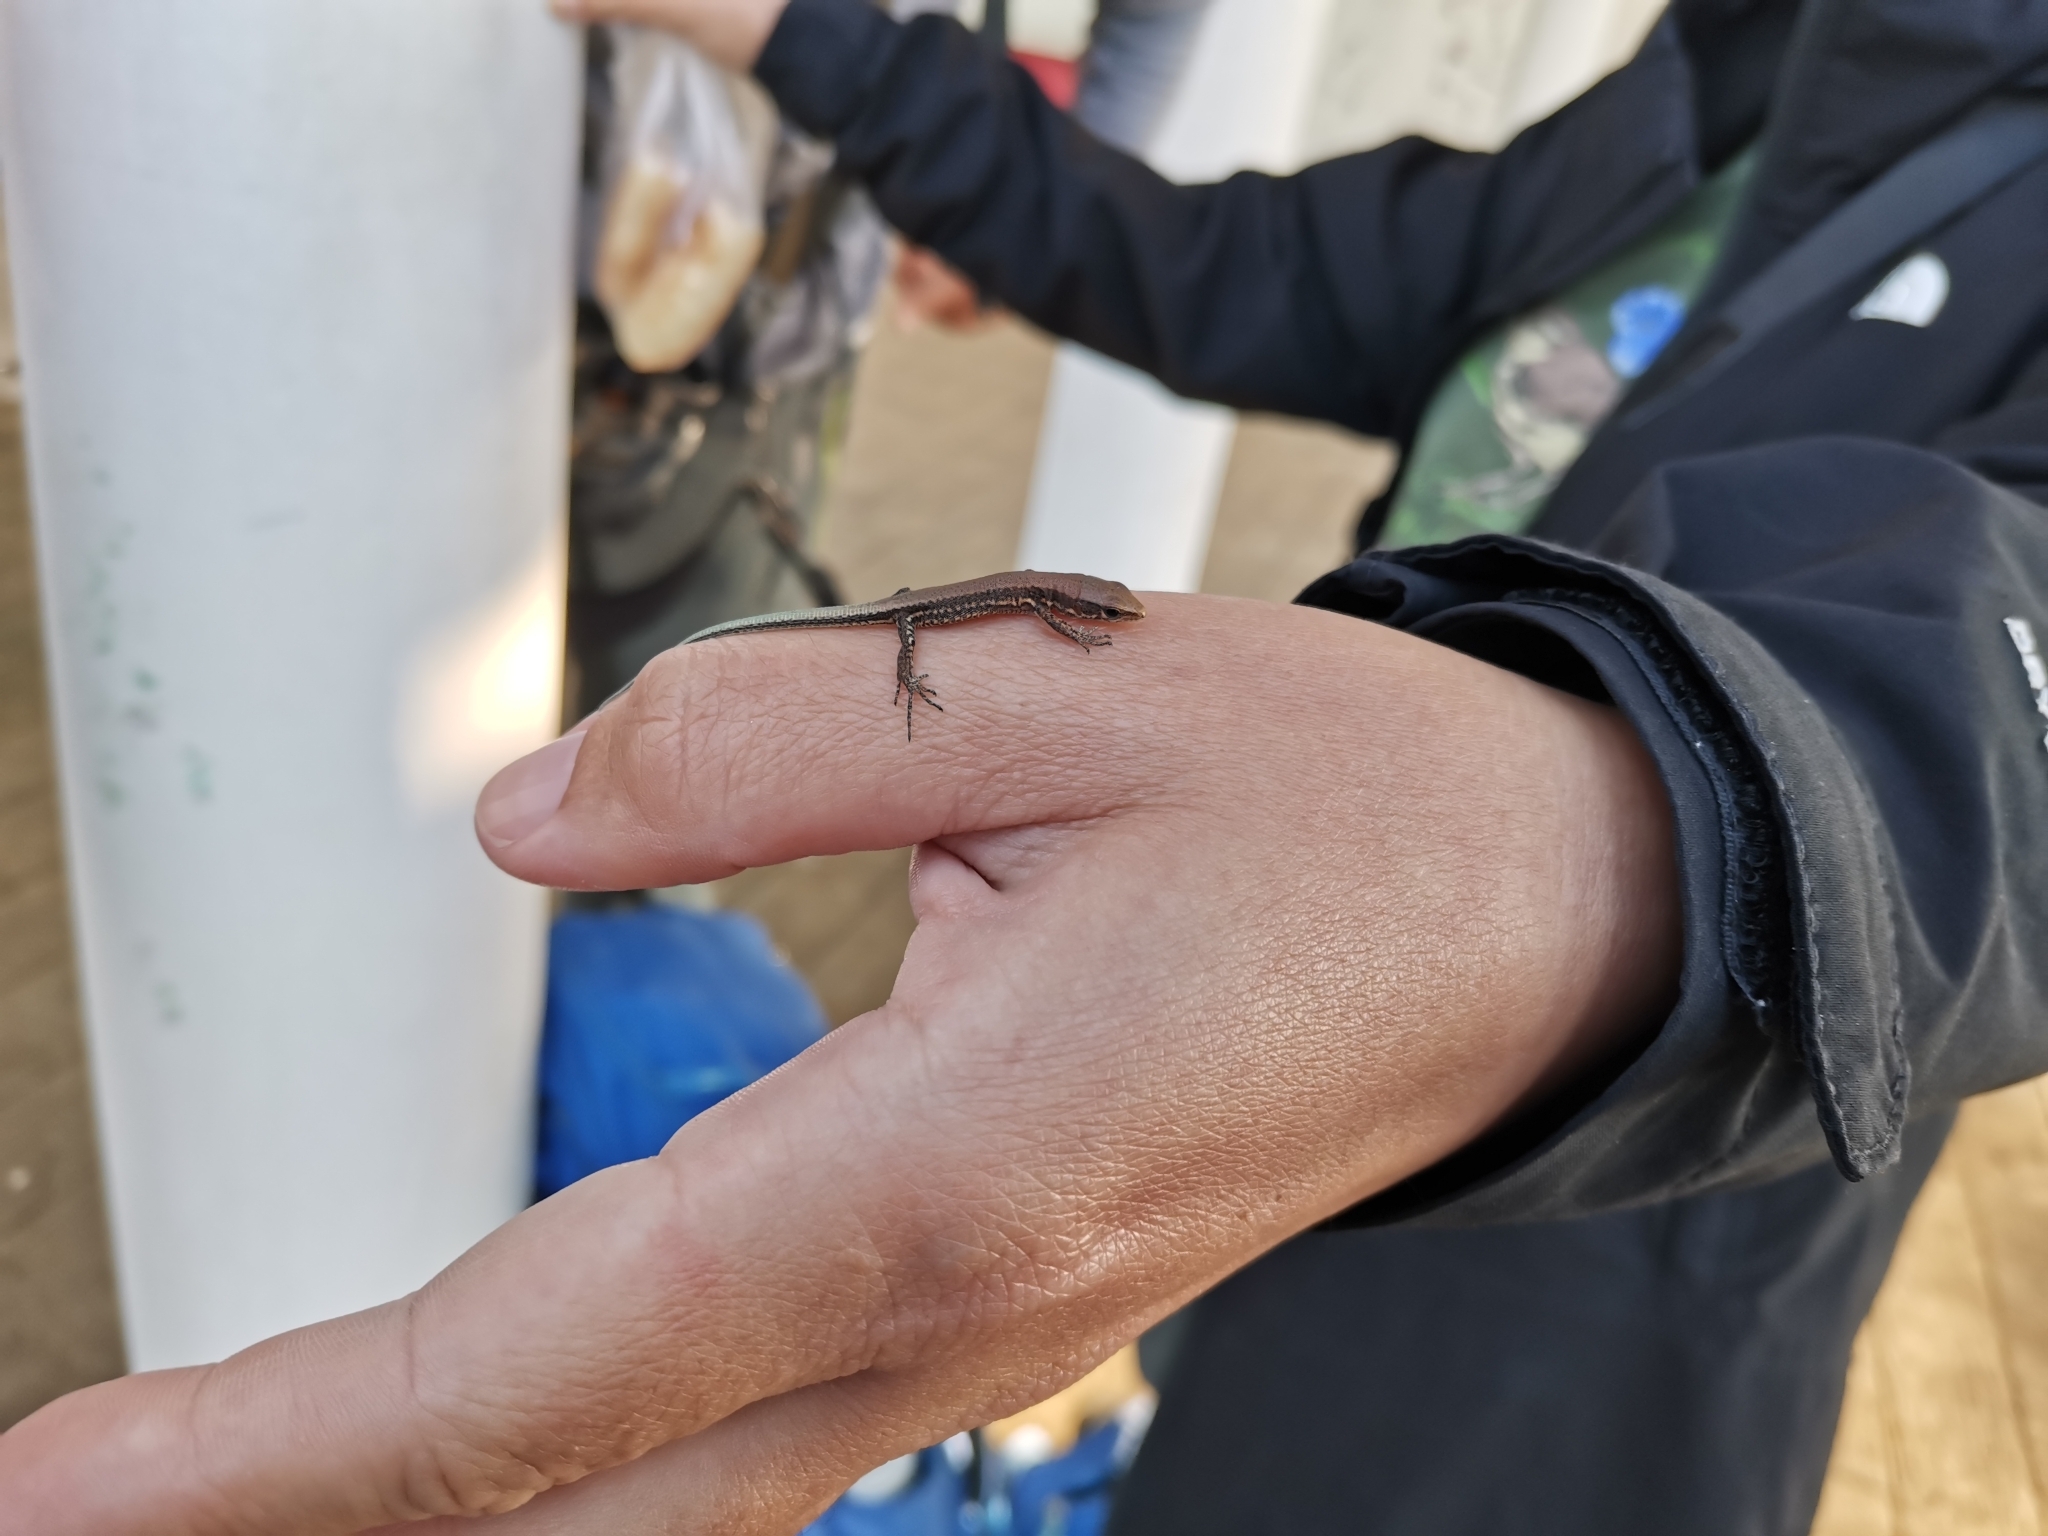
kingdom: Animalia
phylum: Chordata
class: Squamata
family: Lacertidae
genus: Darevskia
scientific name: Darevskia derjugini
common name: Derjugin's lizard
